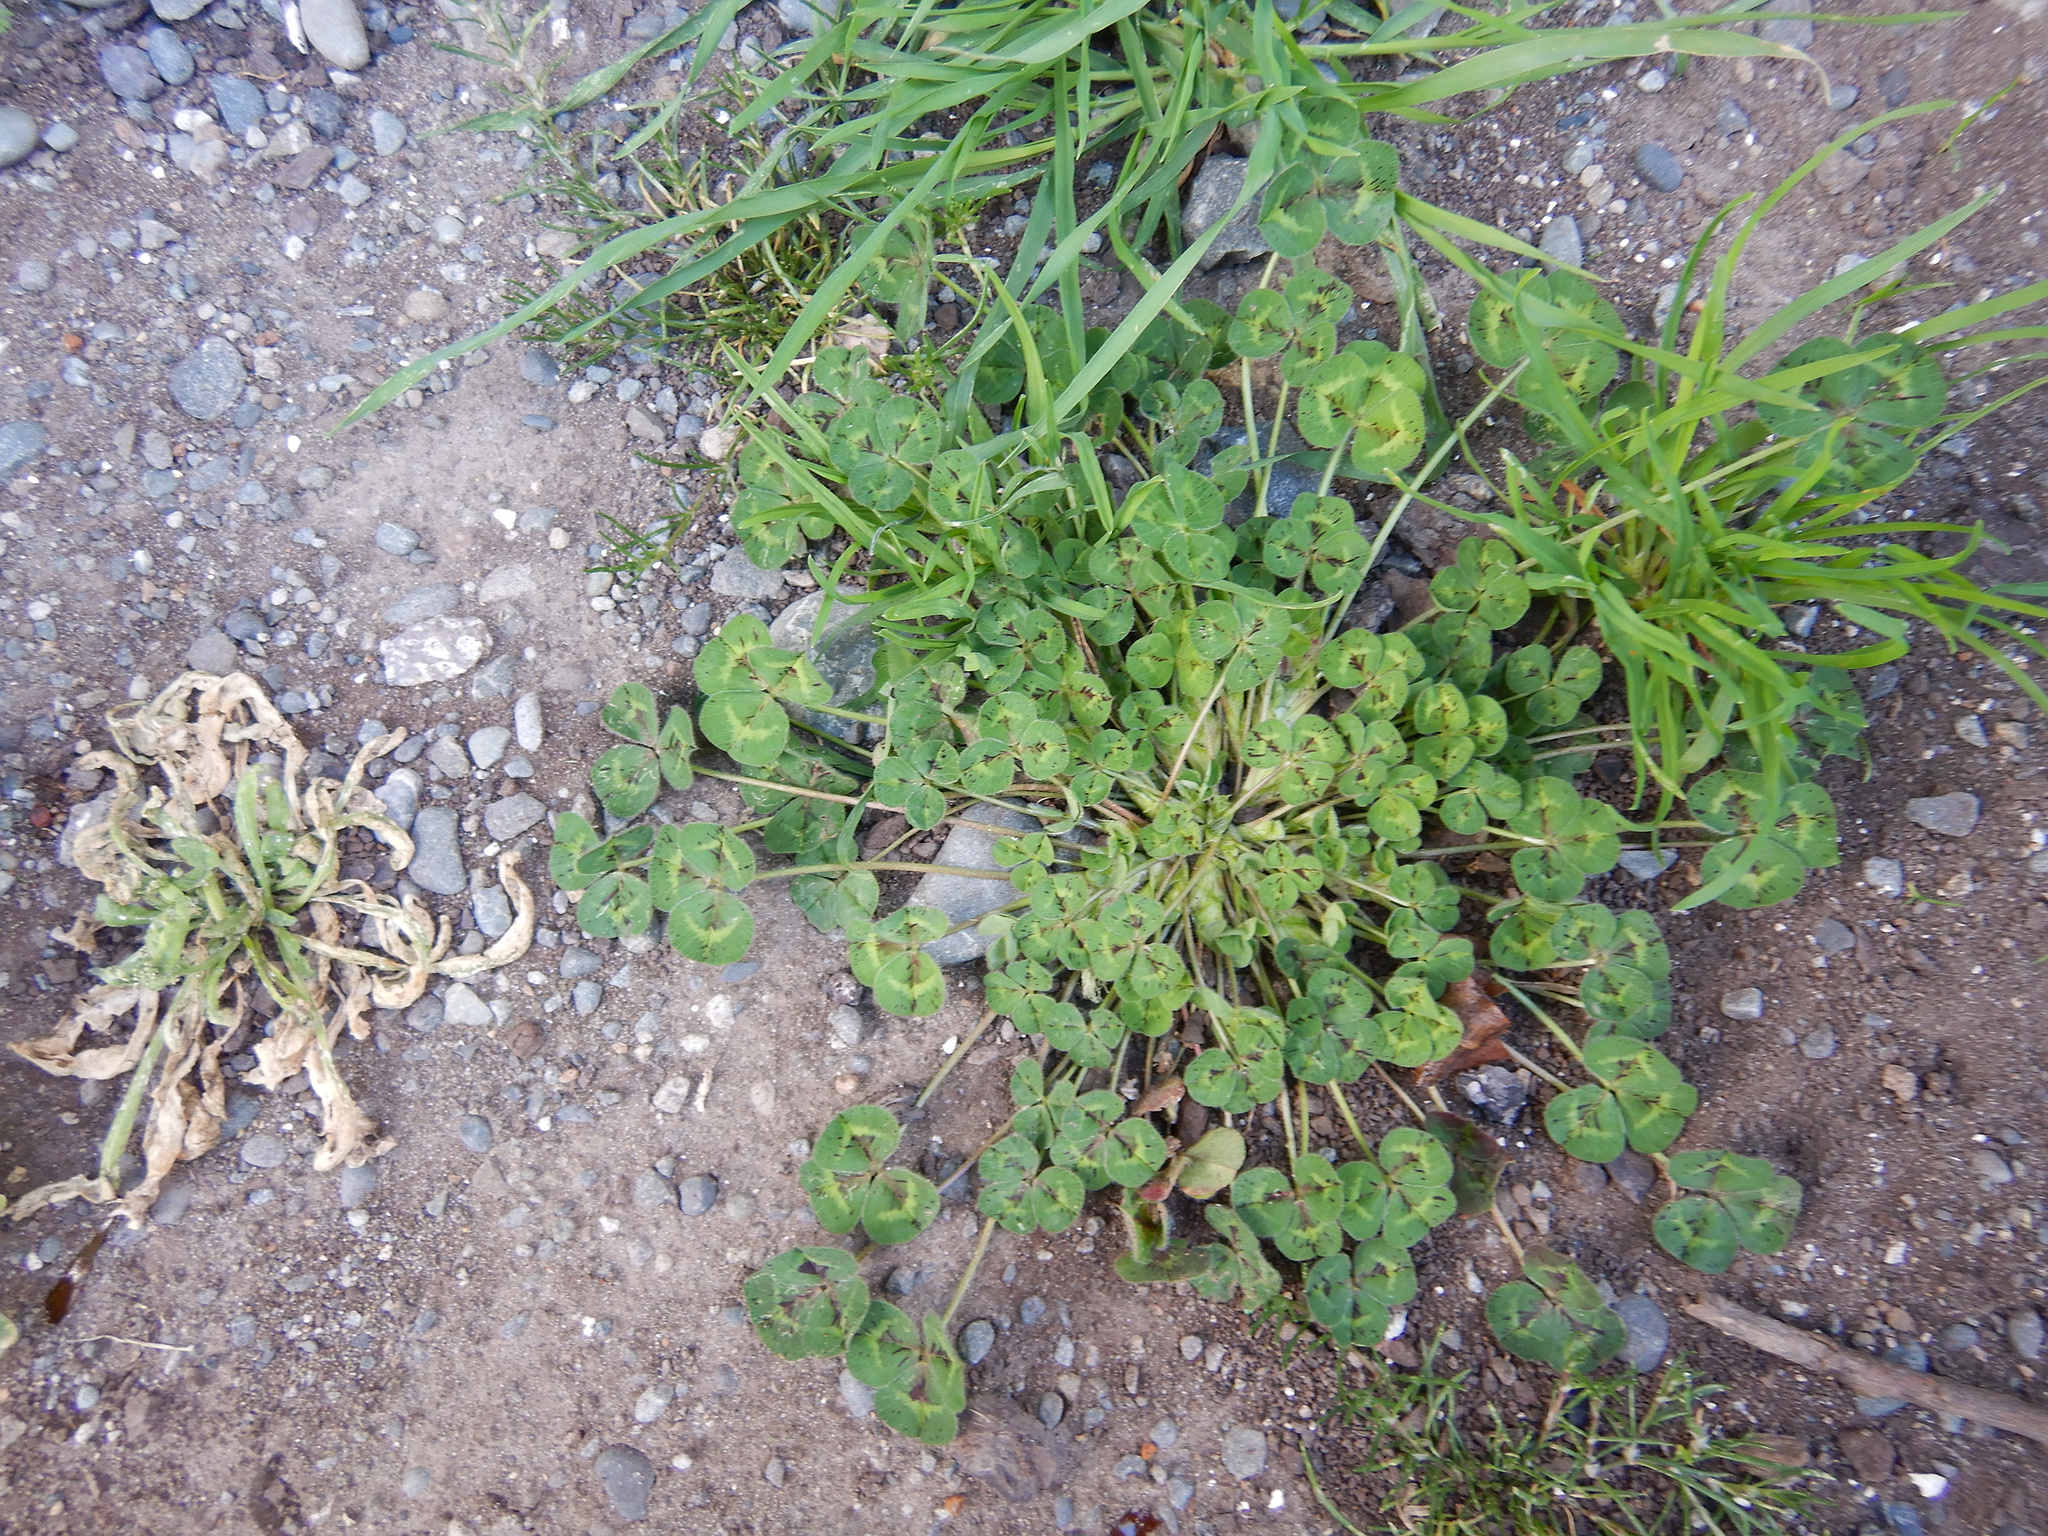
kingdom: Plantae
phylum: Tracheophyta
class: Magnoliopsida
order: Fabales
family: Fabaceae
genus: Medicago
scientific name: Medicago arabica
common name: Spotted medick
